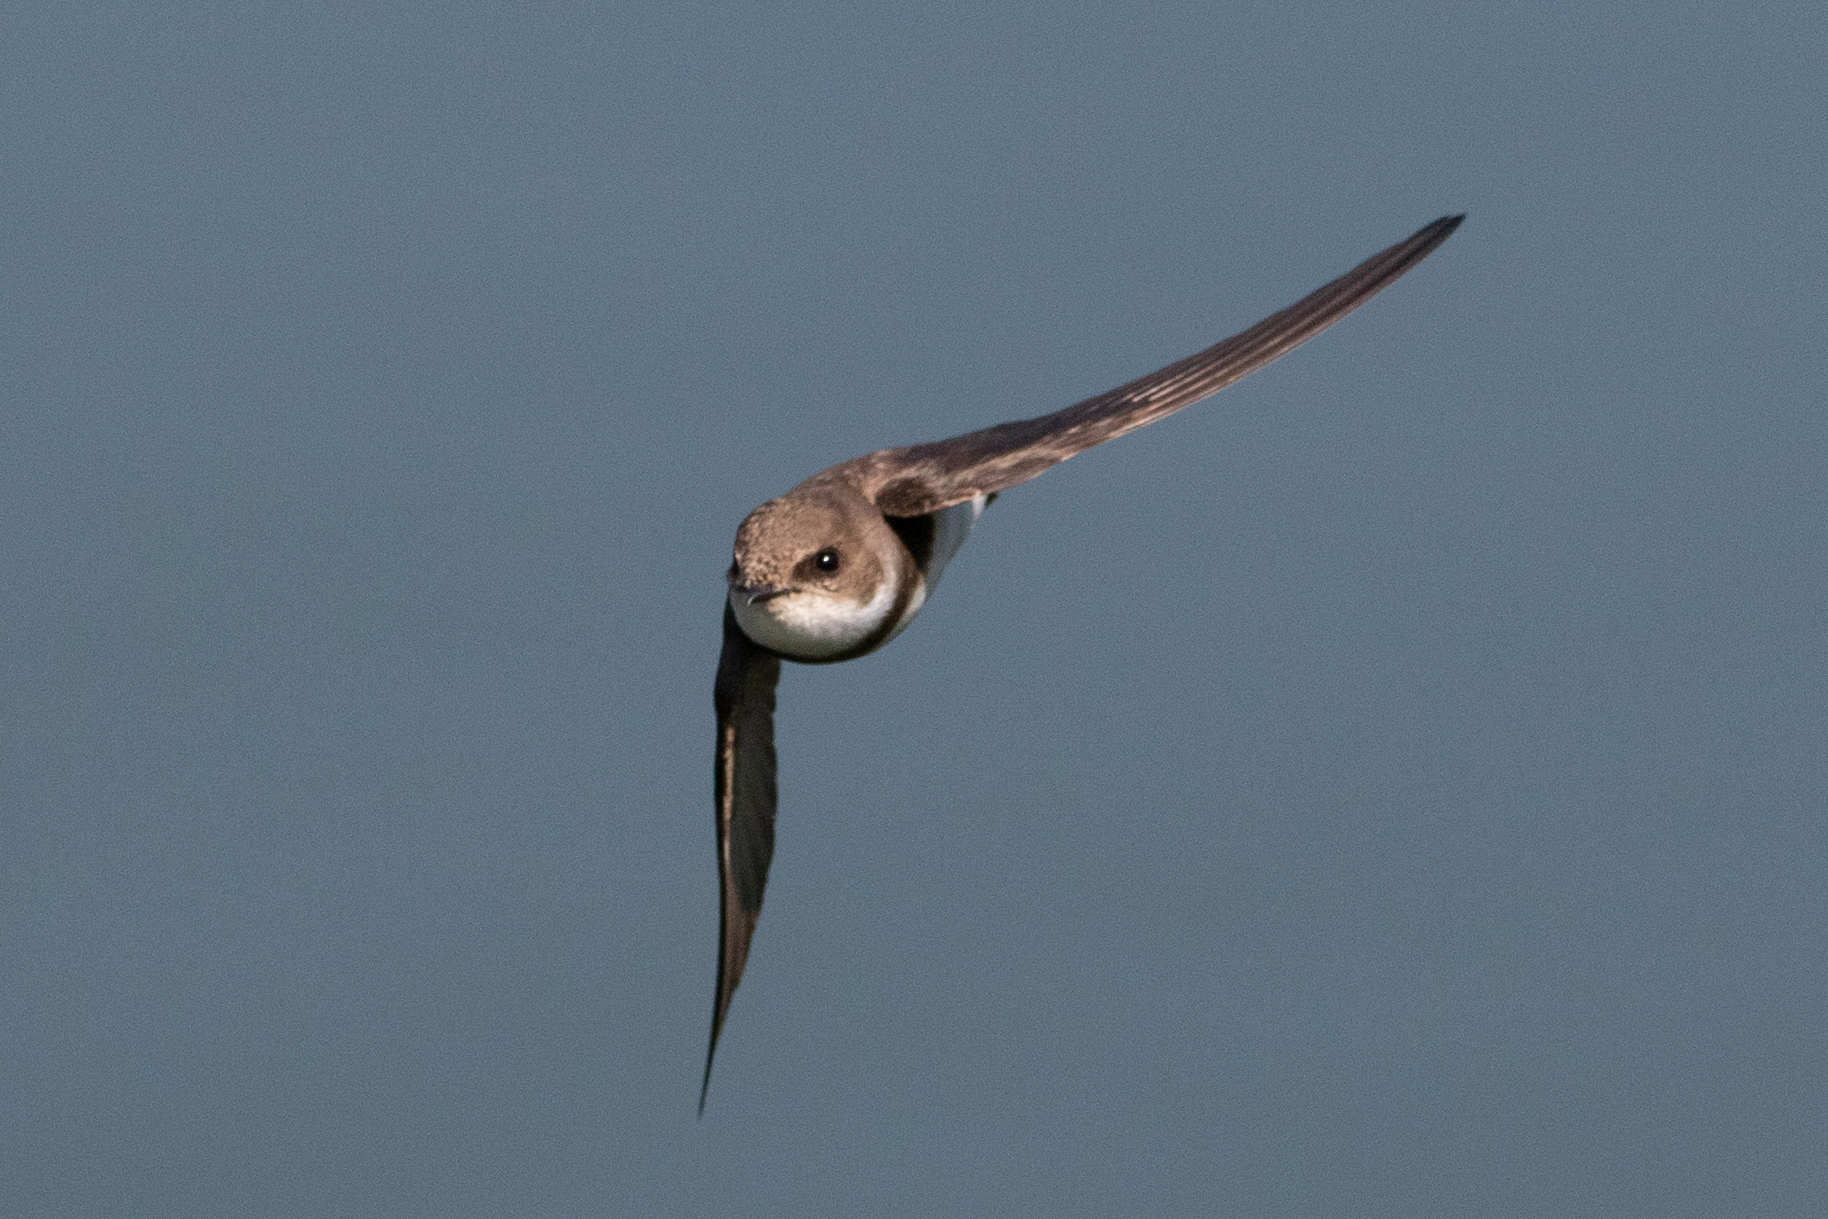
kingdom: Animalia
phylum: Chordata
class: Aves
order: Passeriformes
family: Hirundinidae
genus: Riparia
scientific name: Riparia riparia
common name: Sand martin
